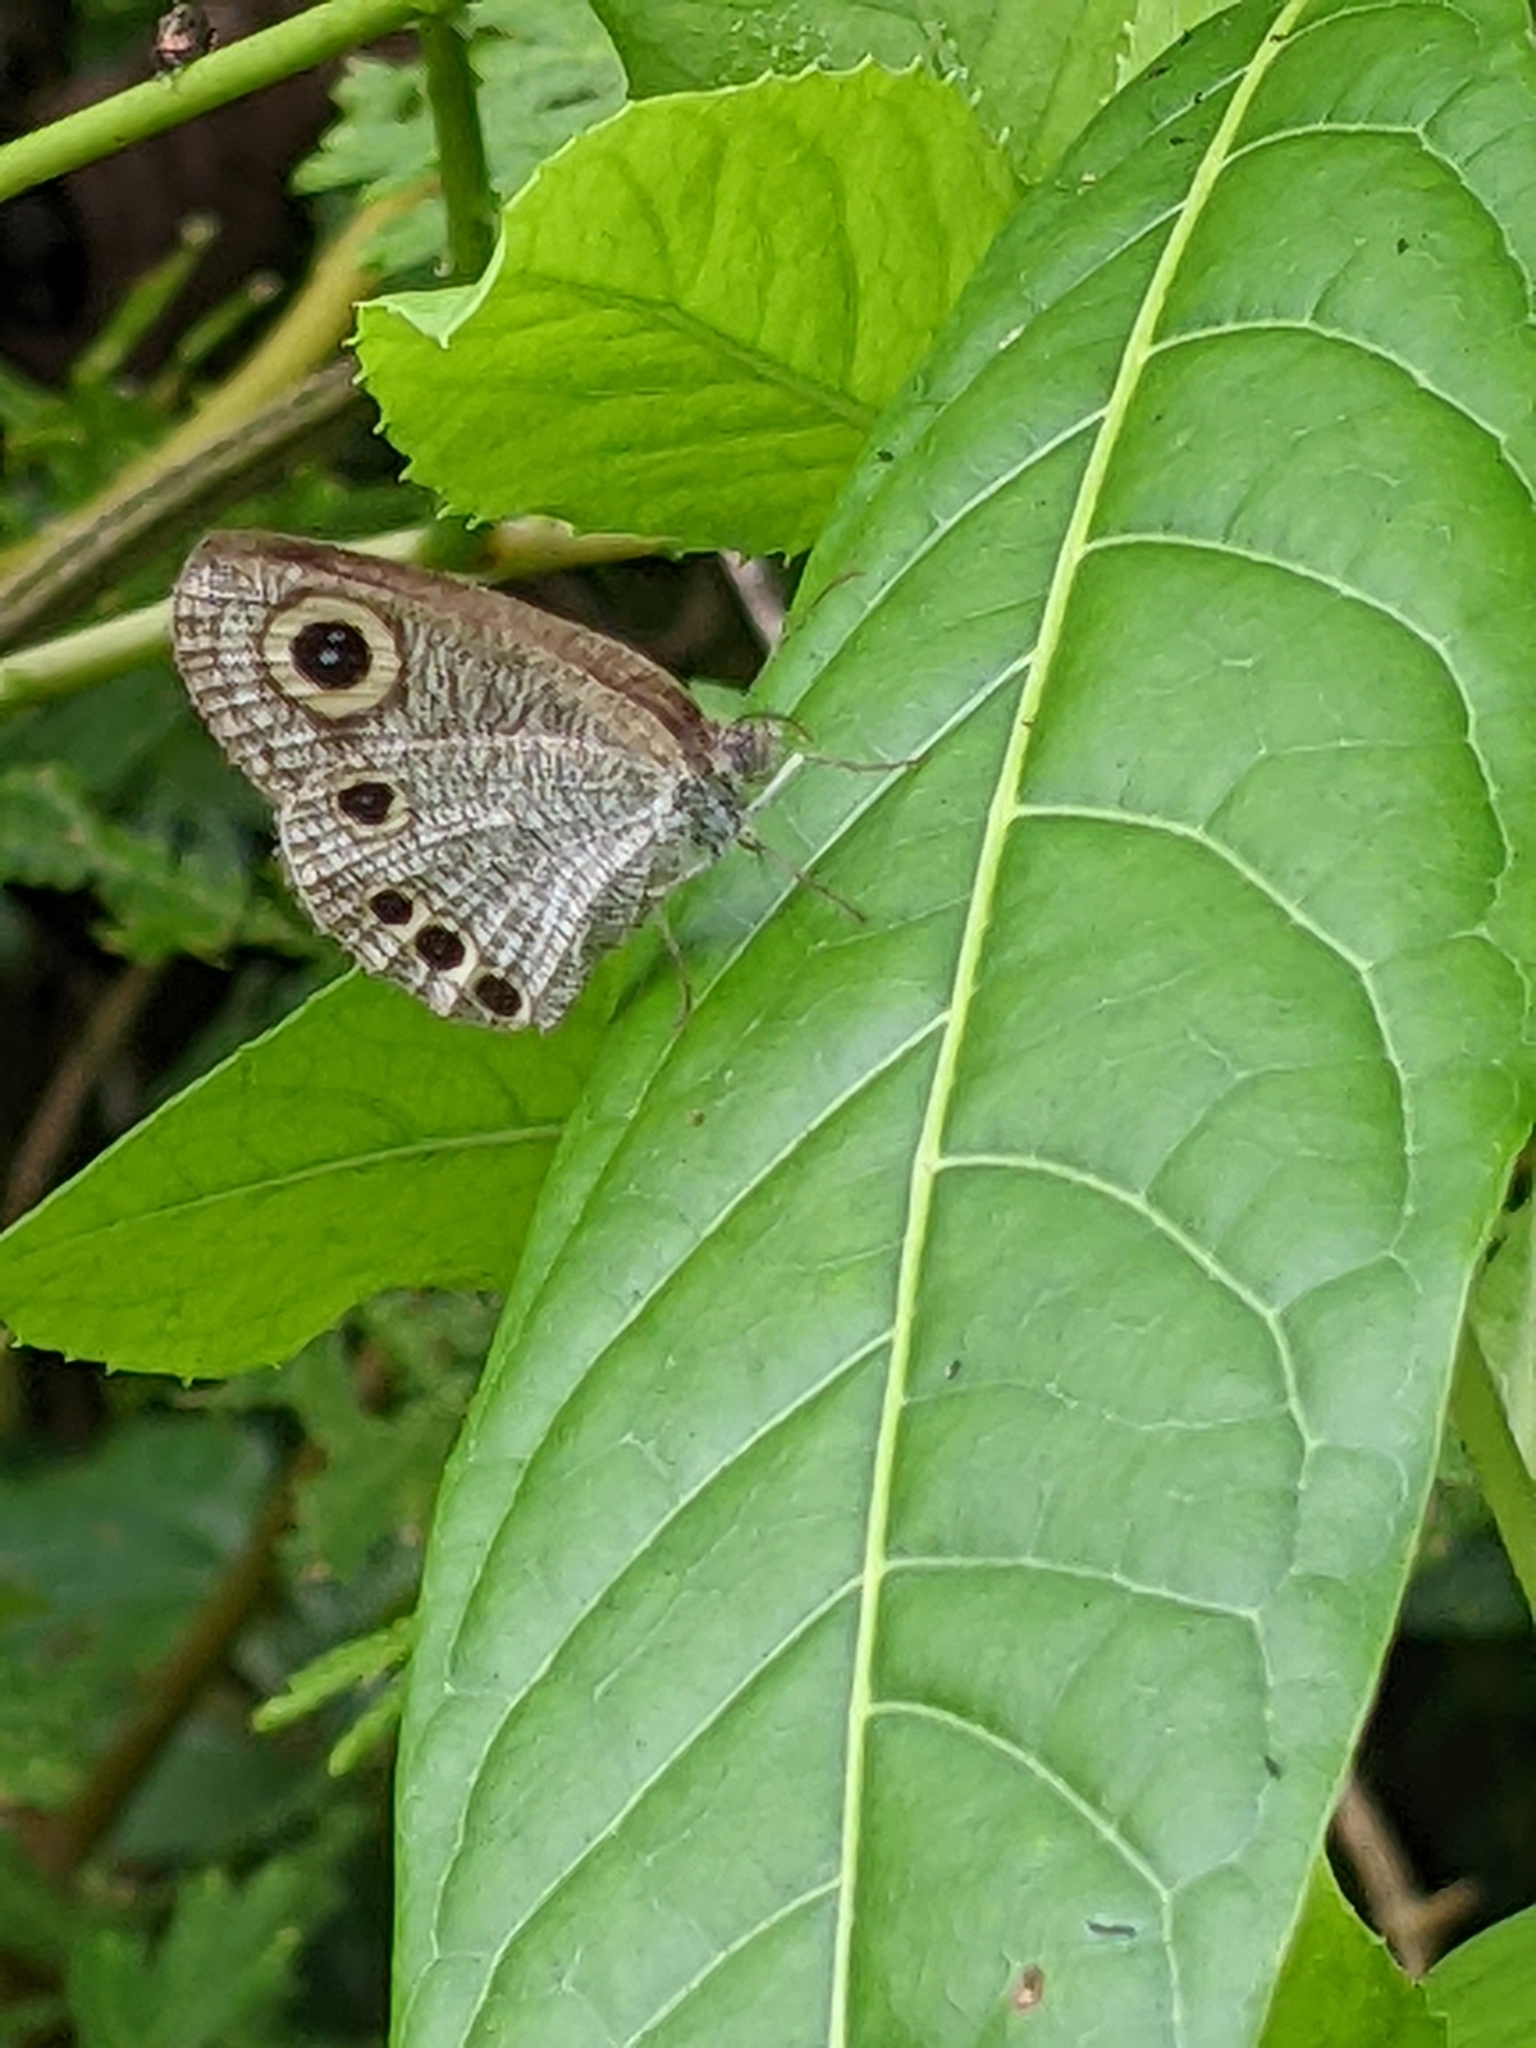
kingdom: Animalia
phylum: Arthropoda
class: Insecta
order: Lepidoptera
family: Nymphalidae
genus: Ypthima
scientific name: Ypthima huebneri
